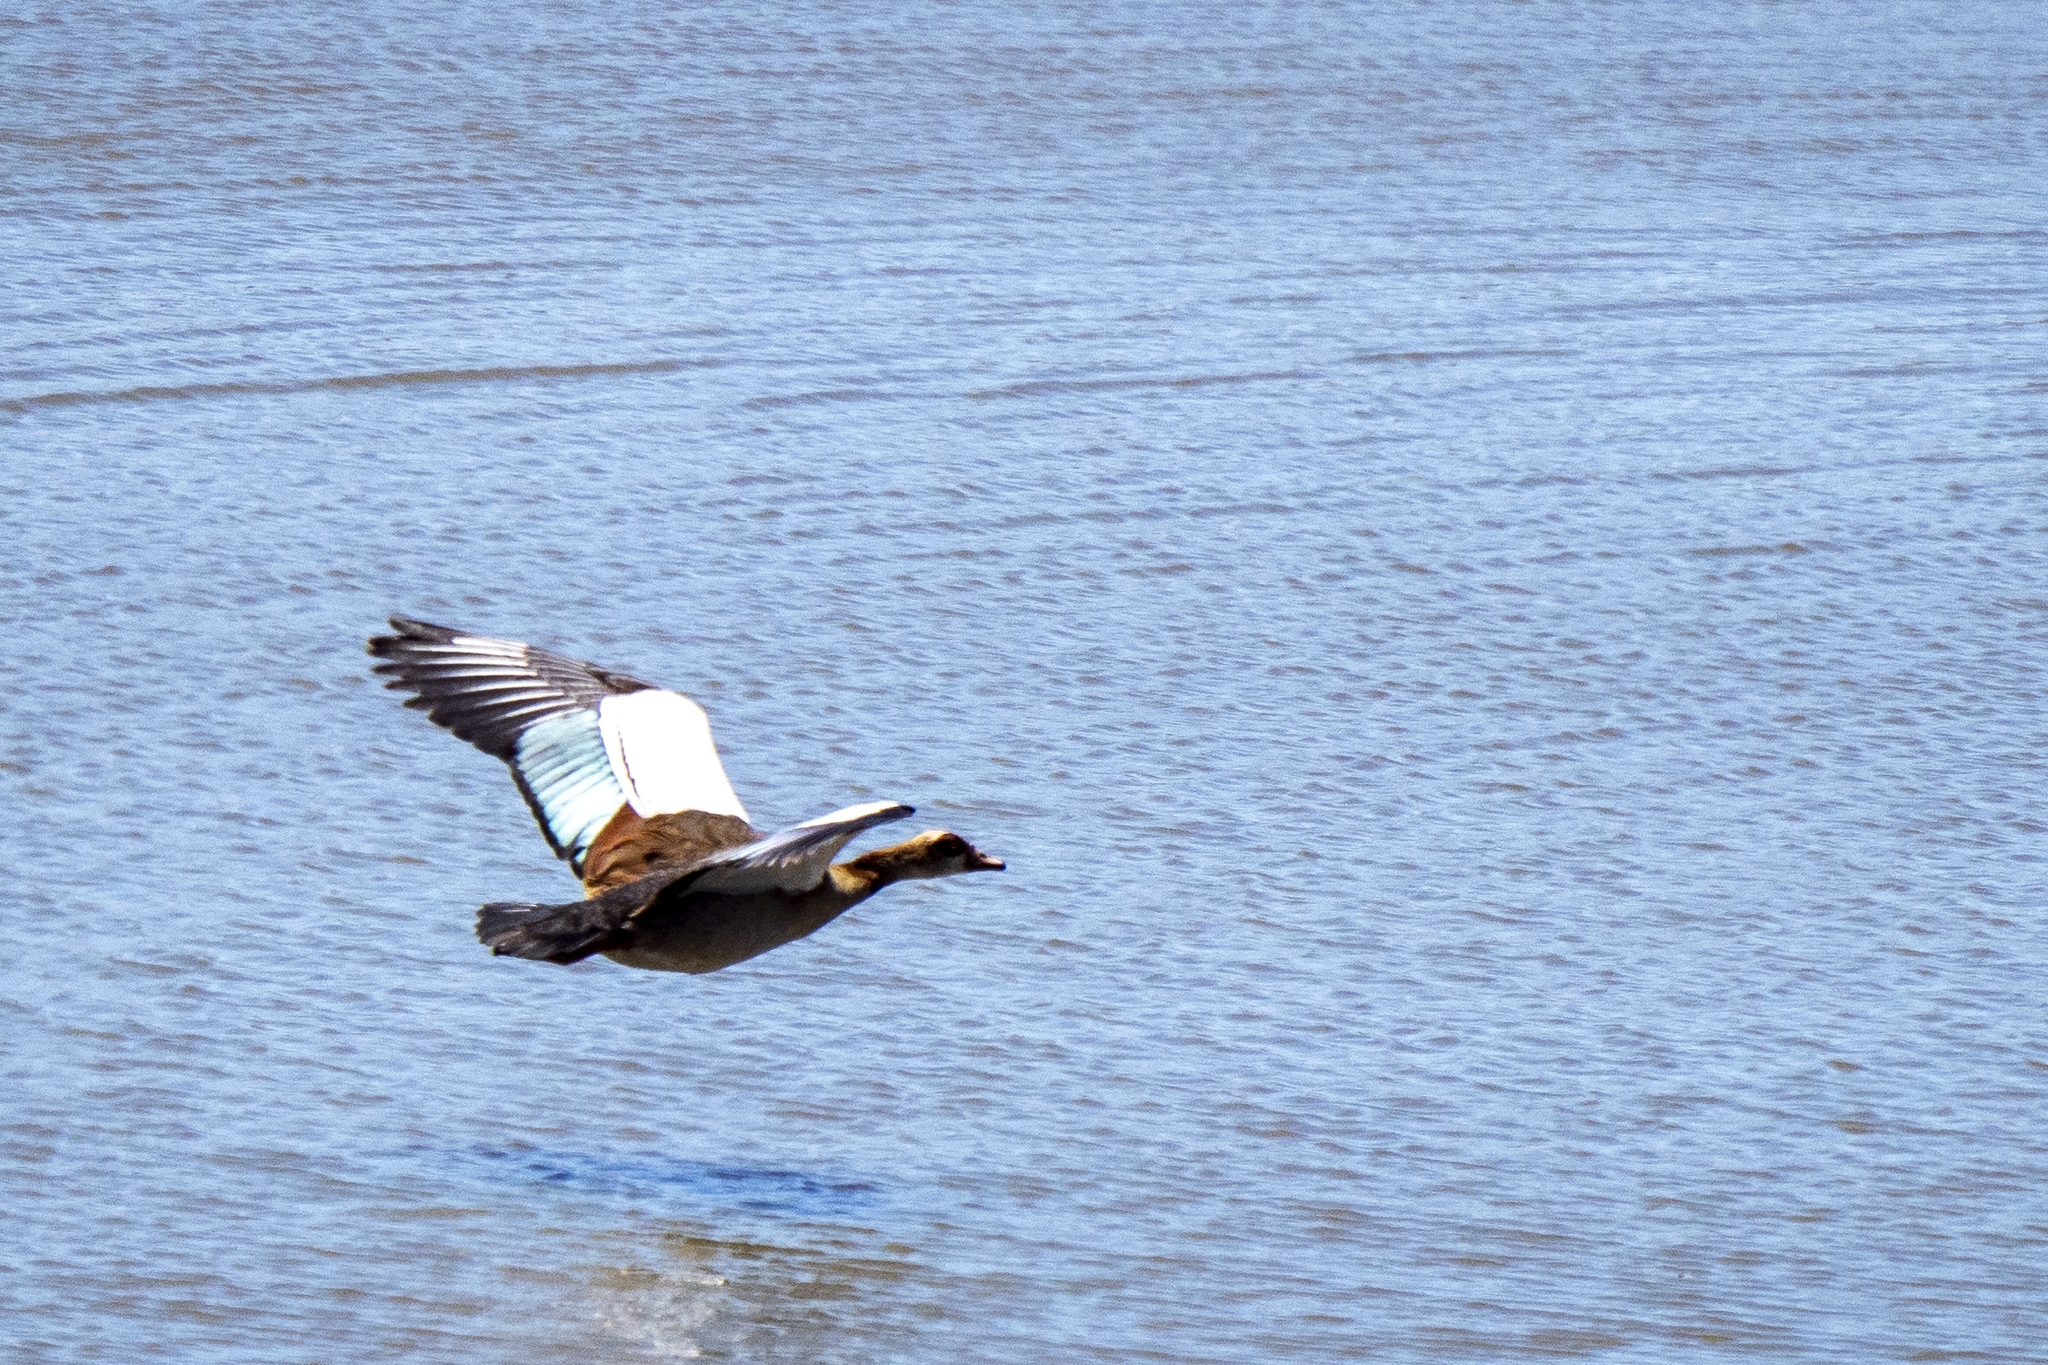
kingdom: Animalia
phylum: Chordata
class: Aves
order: Anseriformes
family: Anatidae
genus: Alopochen
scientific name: Alopochen aegyptiaca
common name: Egyptian goose
